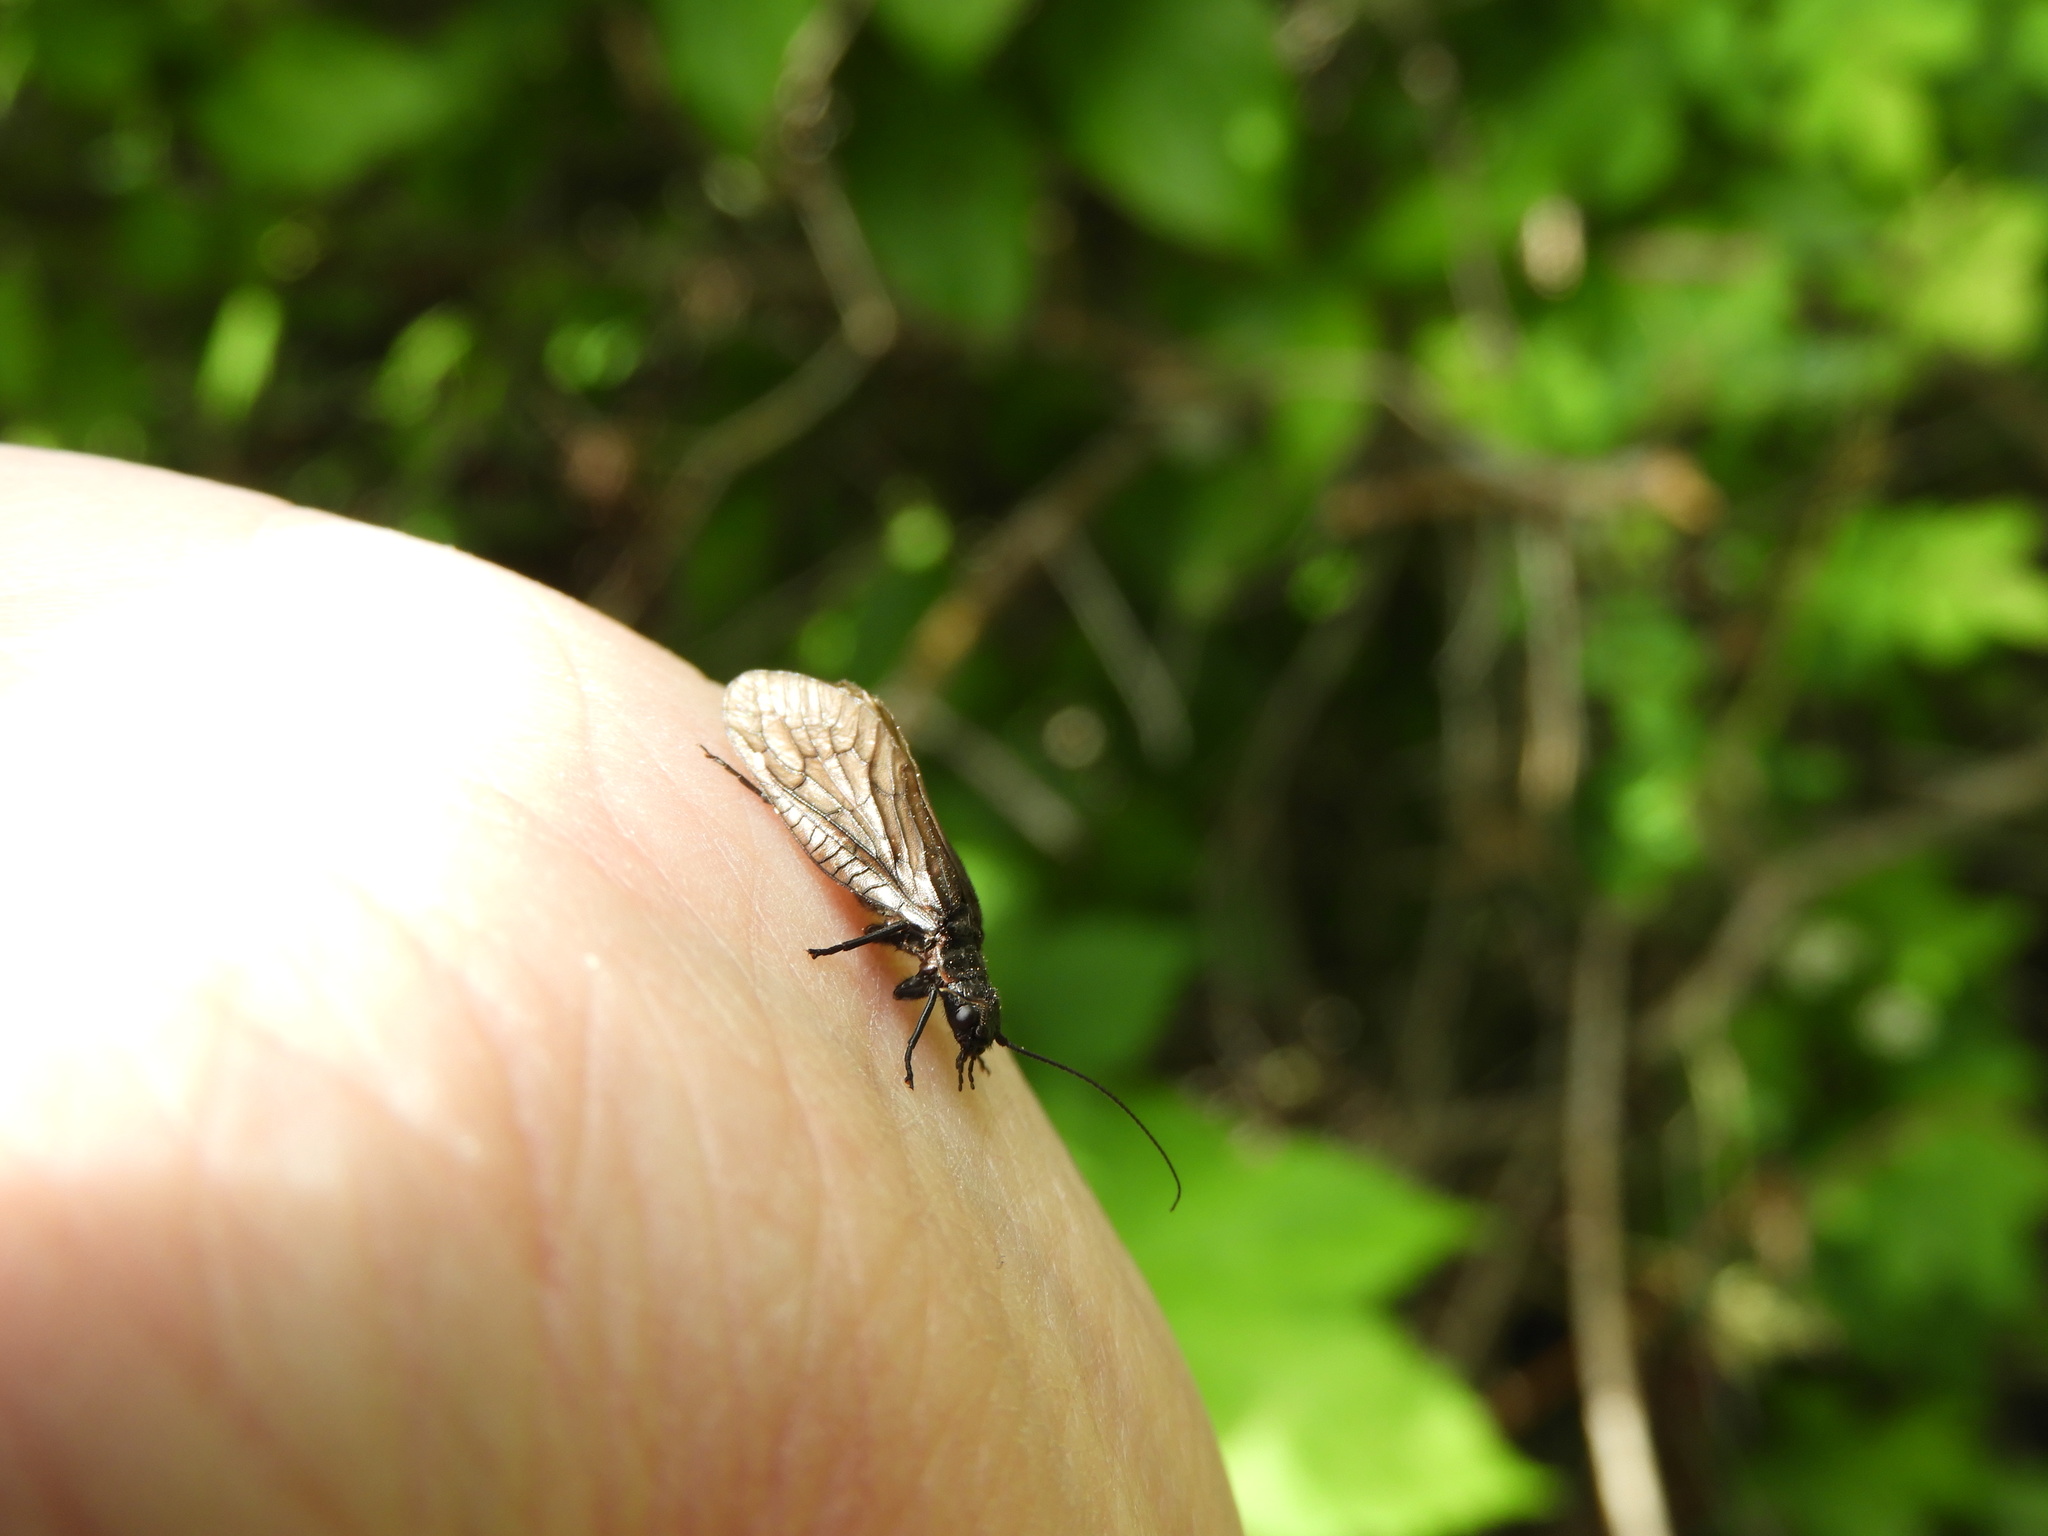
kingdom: Animalia
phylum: Arthropoda
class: Insecta
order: Megaloptera
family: Sialidae
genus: Sialis
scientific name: Sialis californica
